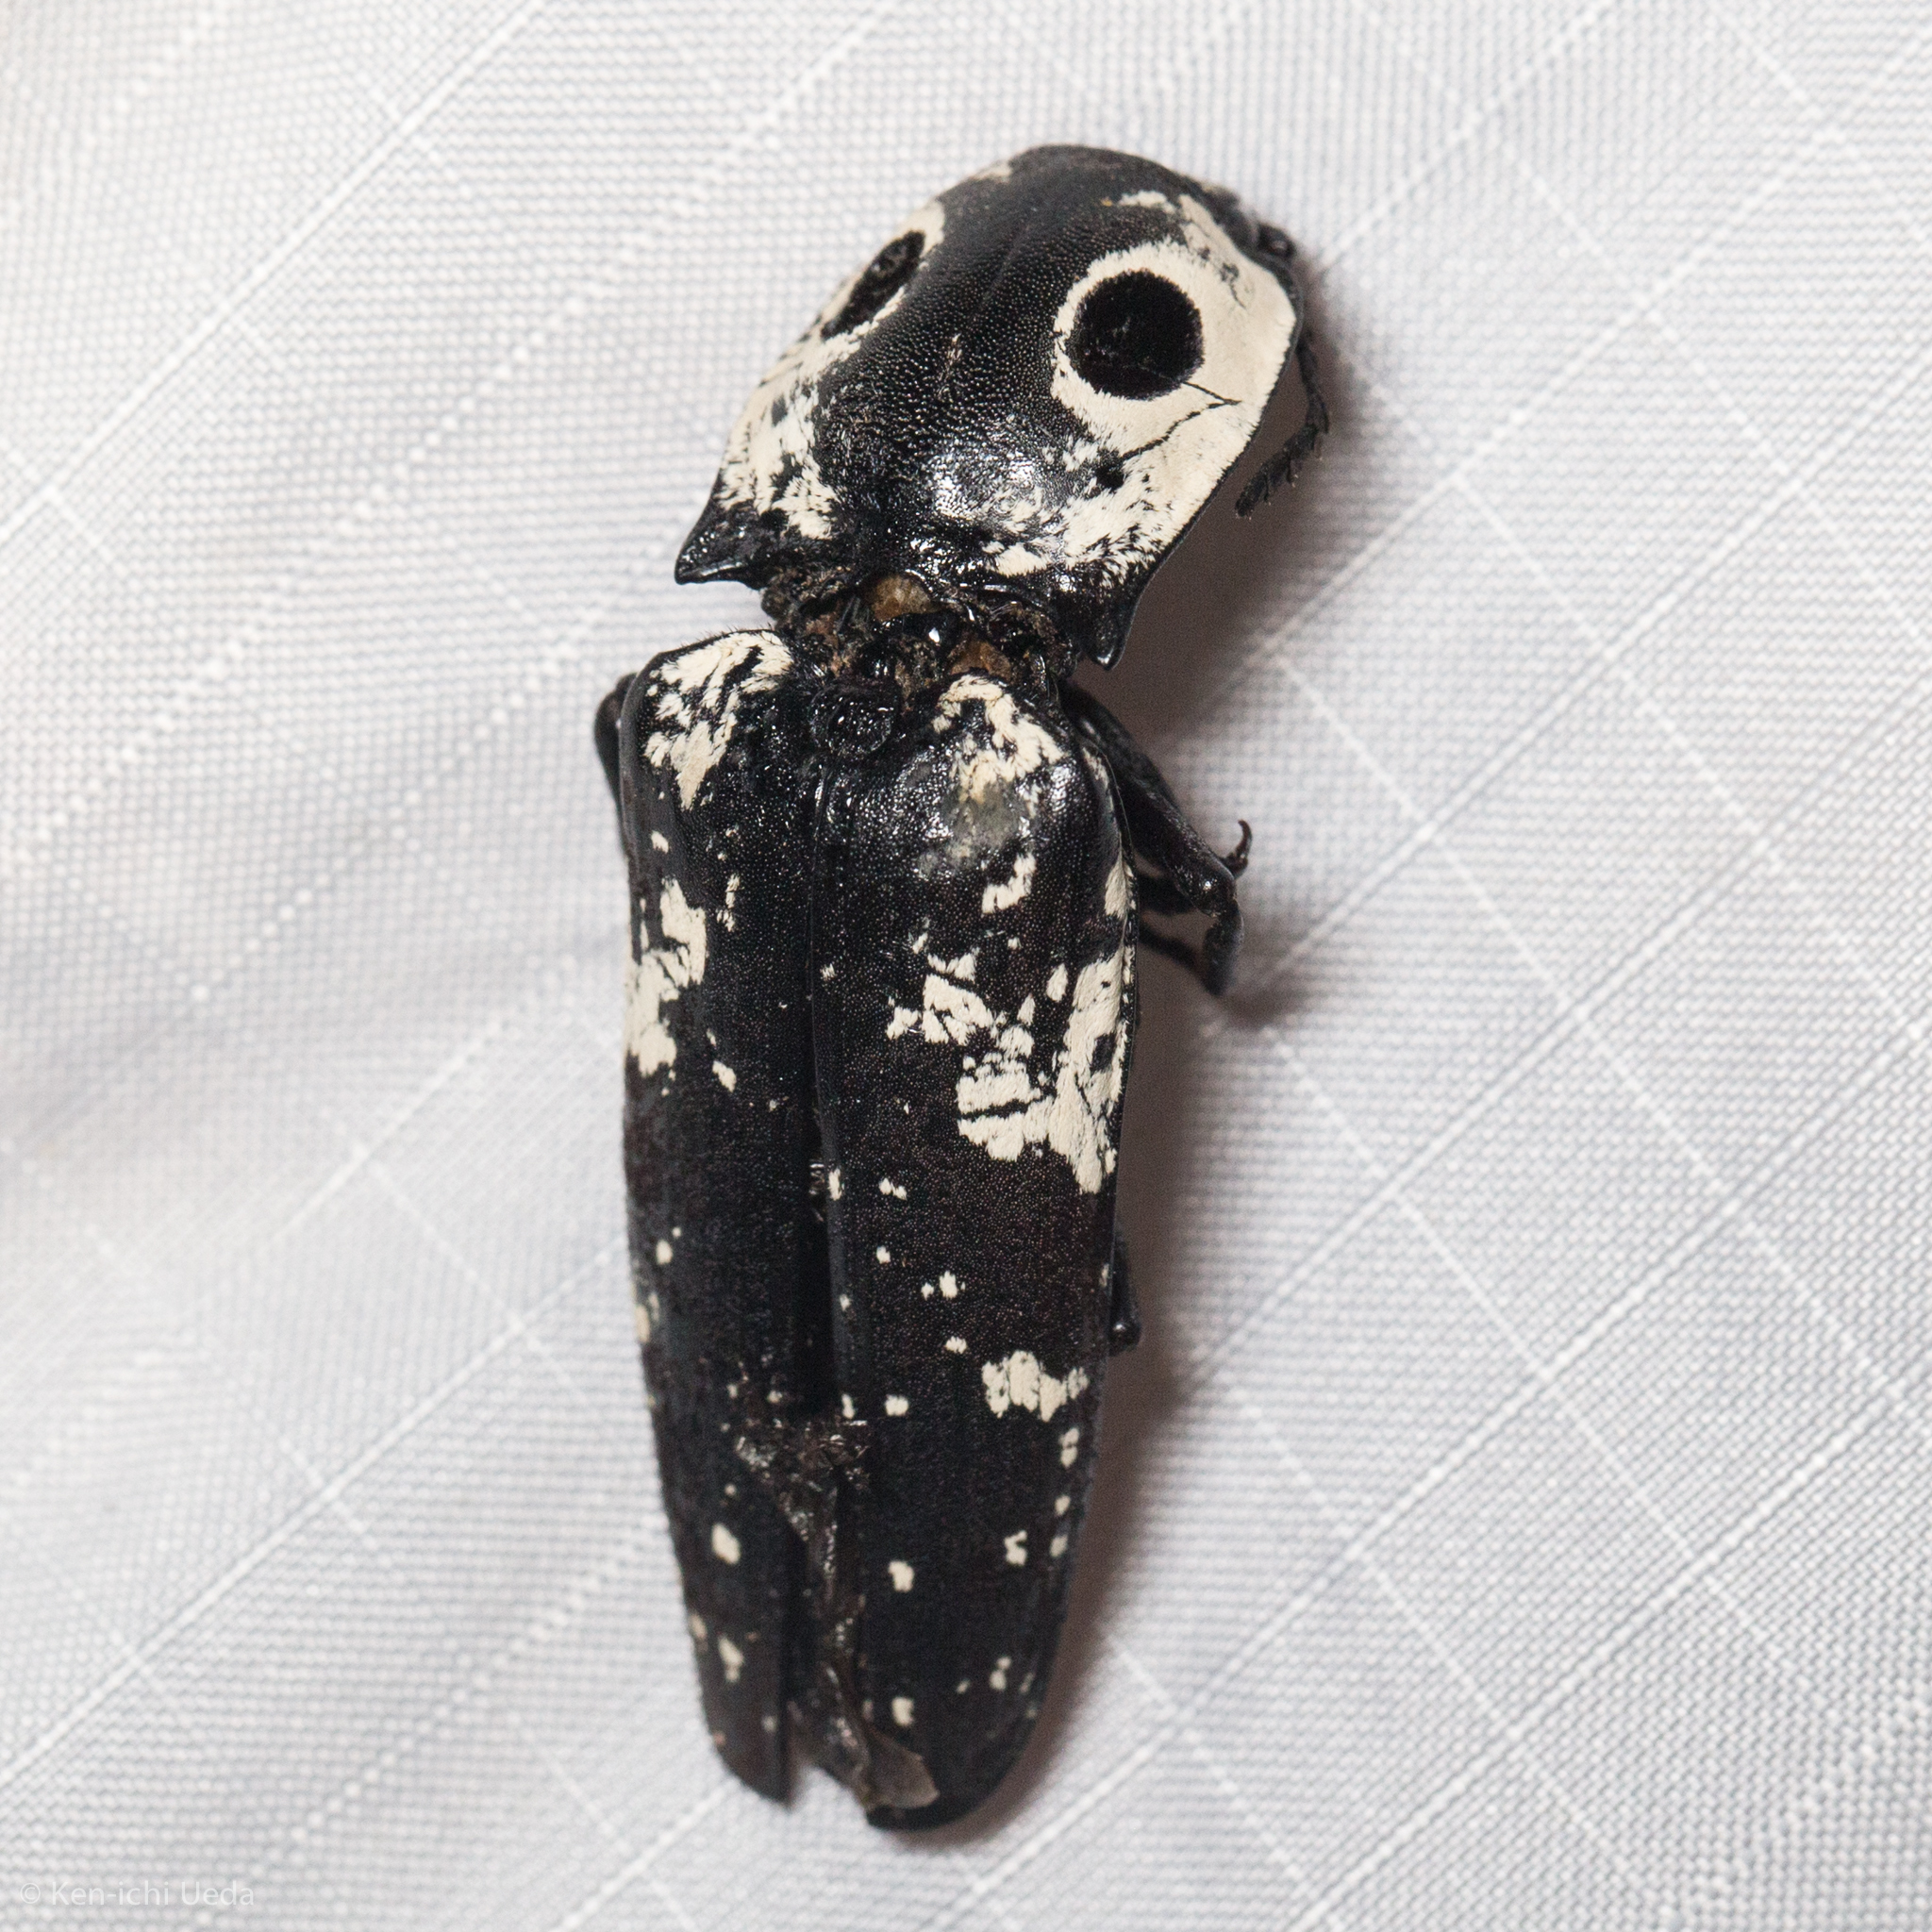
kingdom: Animalia
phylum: Arthropoda
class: Insecta
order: Coleoptera
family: Elateridae
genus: Alaus
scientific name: Alaus zunianus
